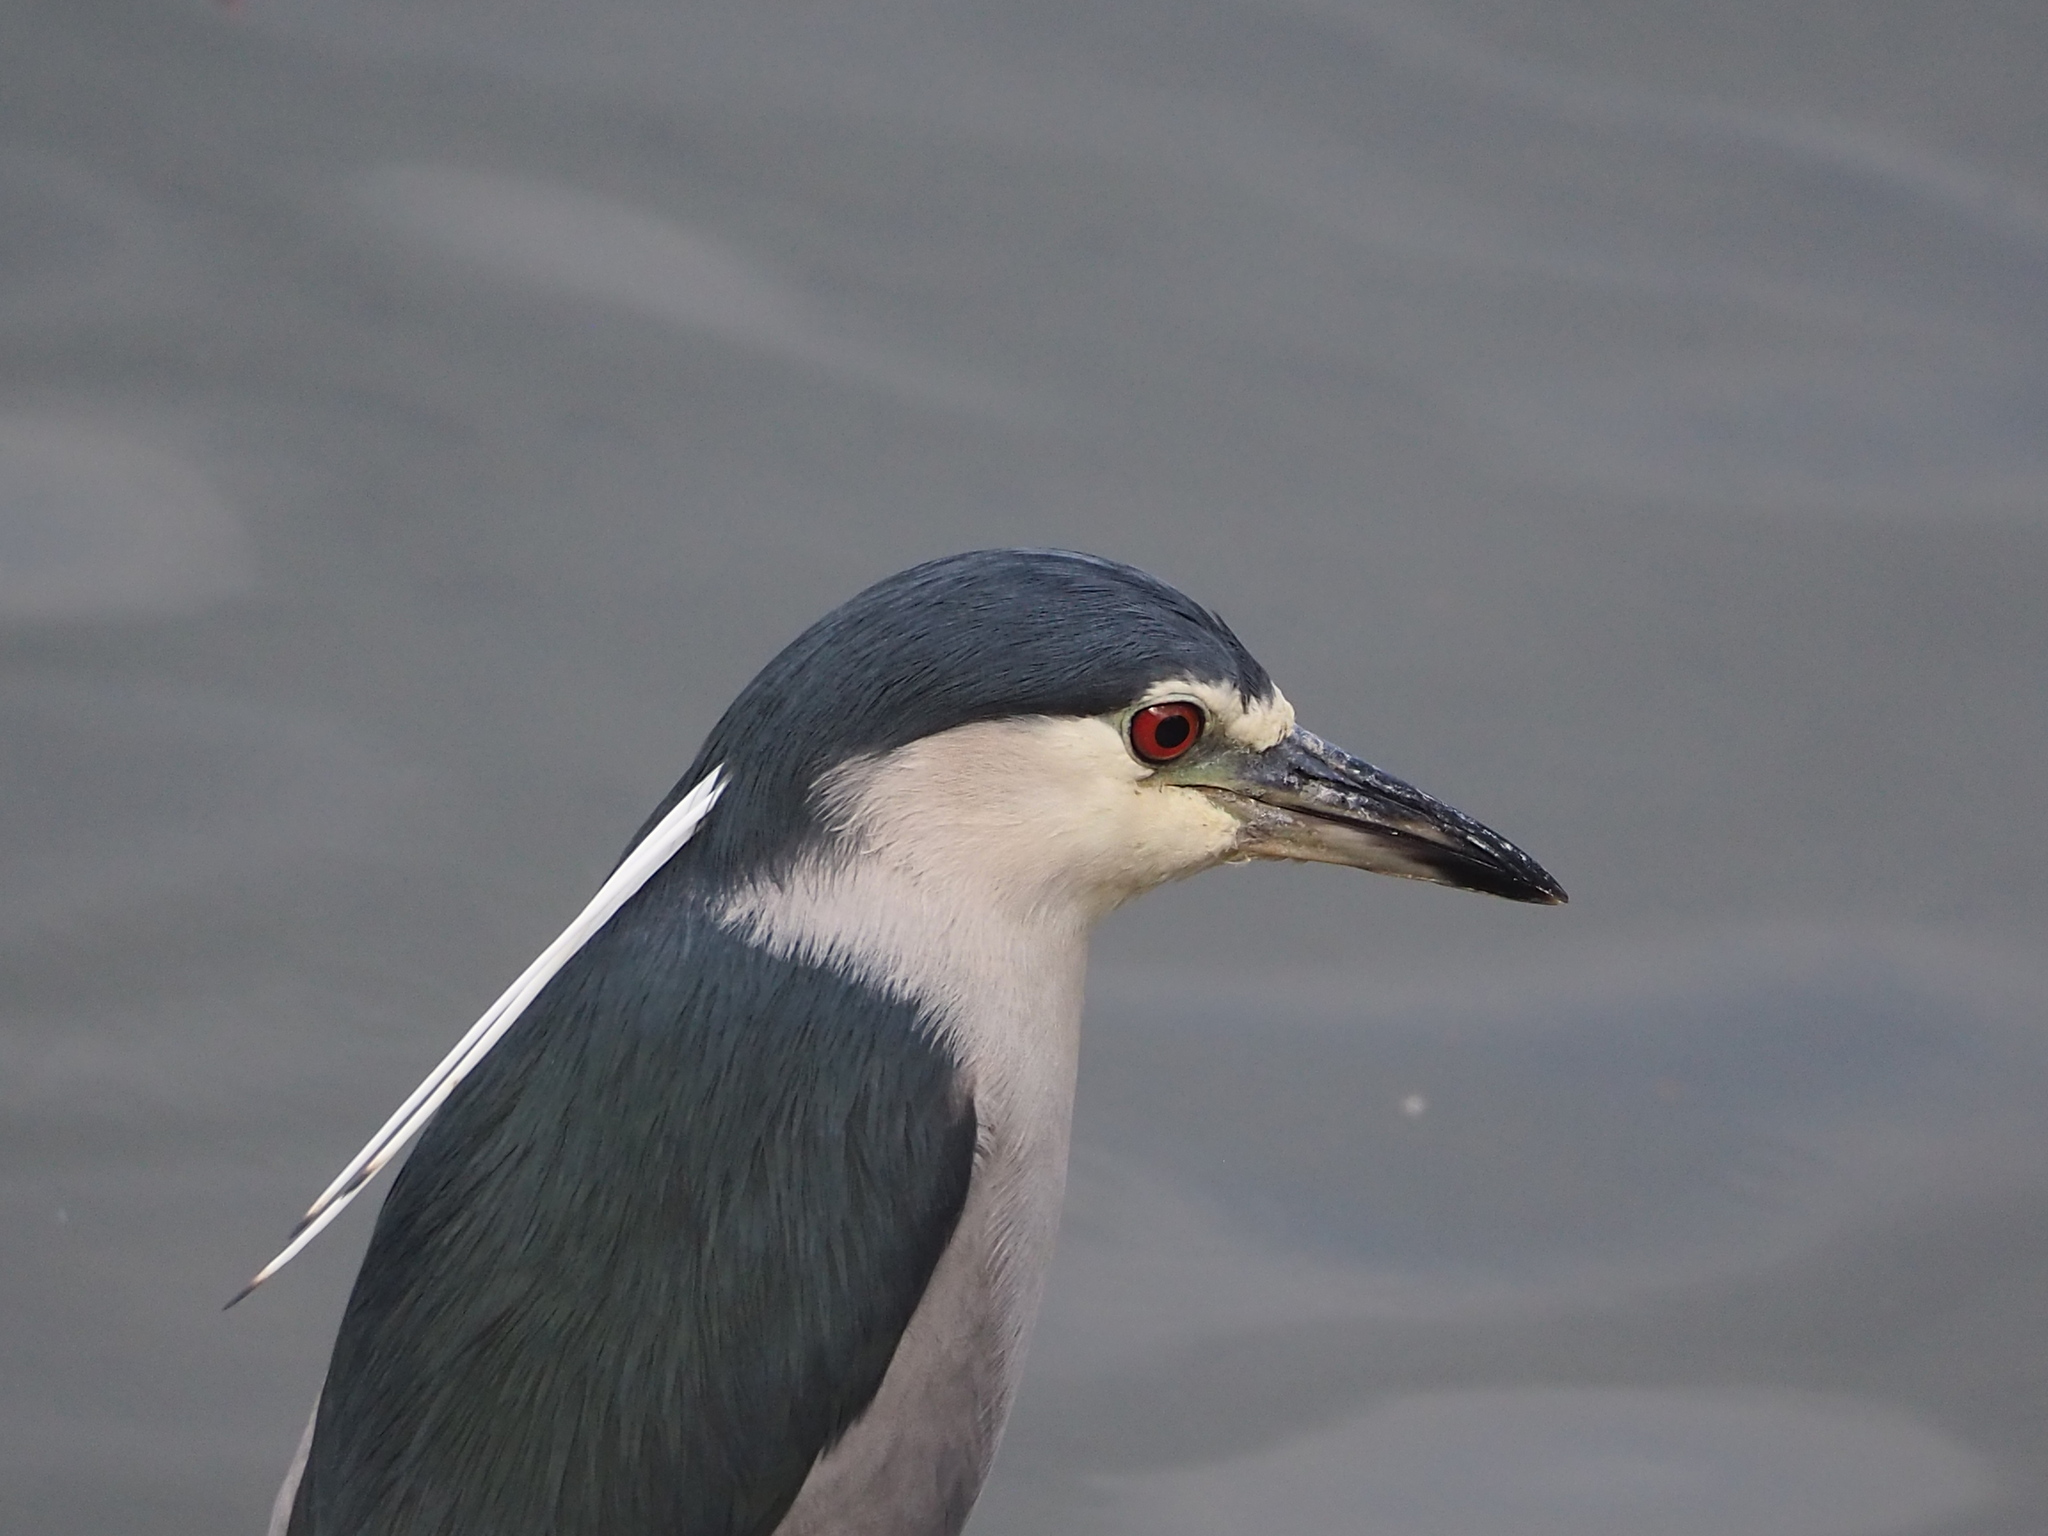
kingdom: Animalia
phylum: Chordata
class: Aves
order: Pelecaniformes
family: Ardeidae
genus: Nycticorax
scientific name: Nycticorax nycticorax
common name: Black-crowned night heron
